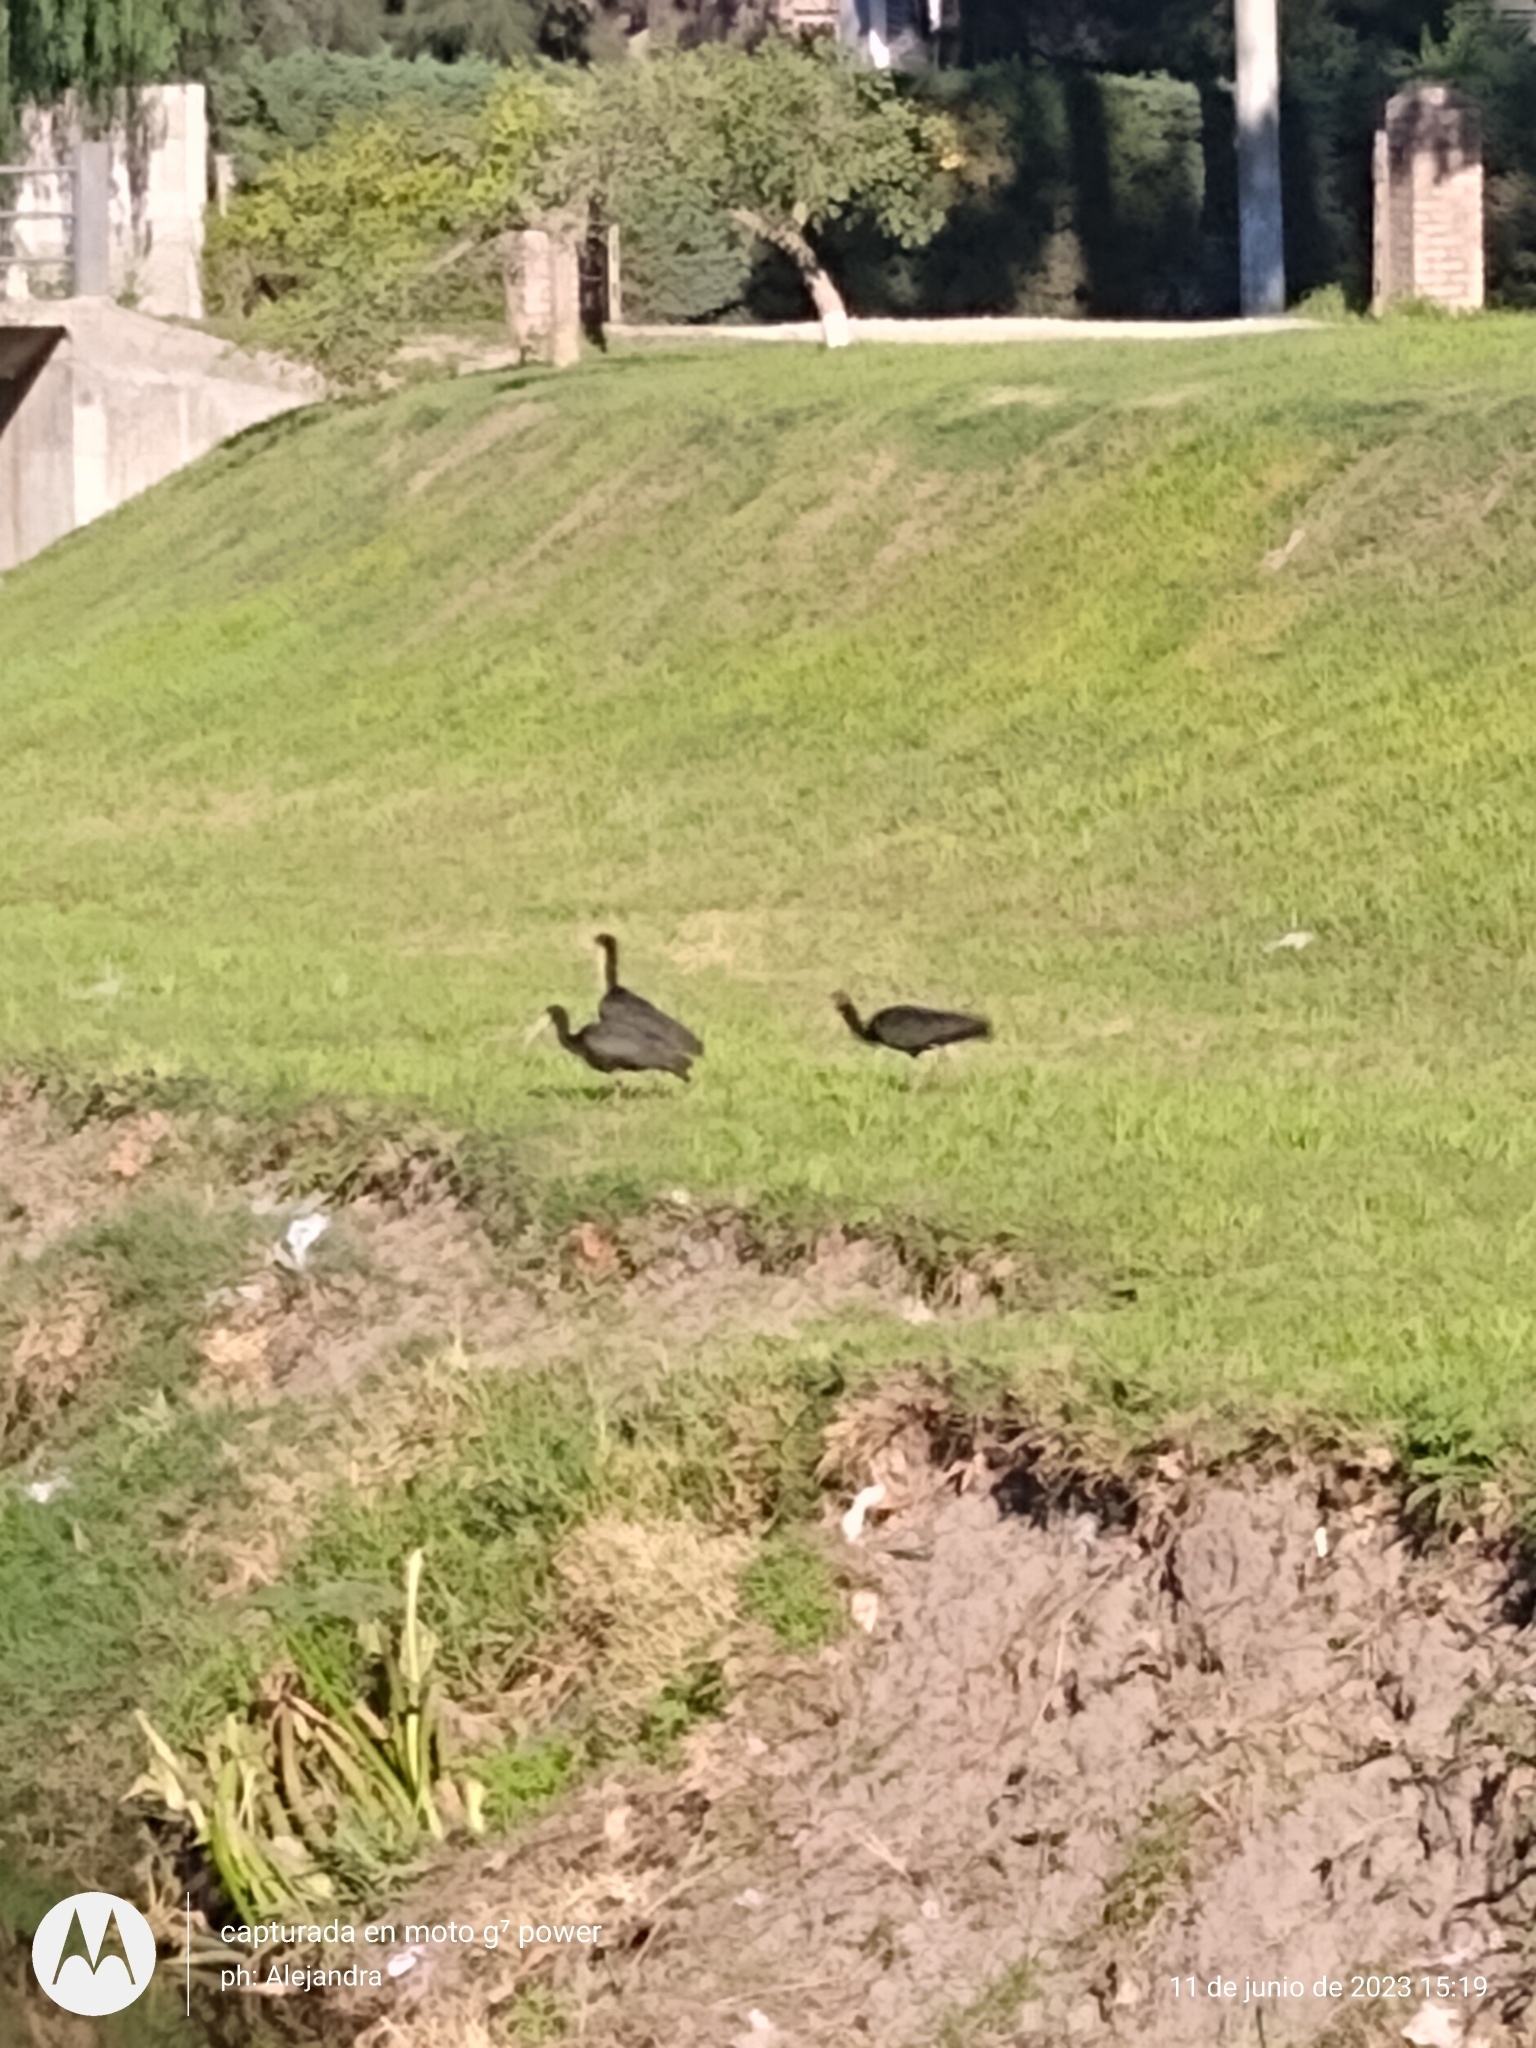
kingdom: Animalia
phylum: Chordata
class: Aves
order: Pelecaniformes
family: Threskiornithidae
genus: Phimosus
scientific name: Phimosus infuscatus
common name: Bare-faced ibis
